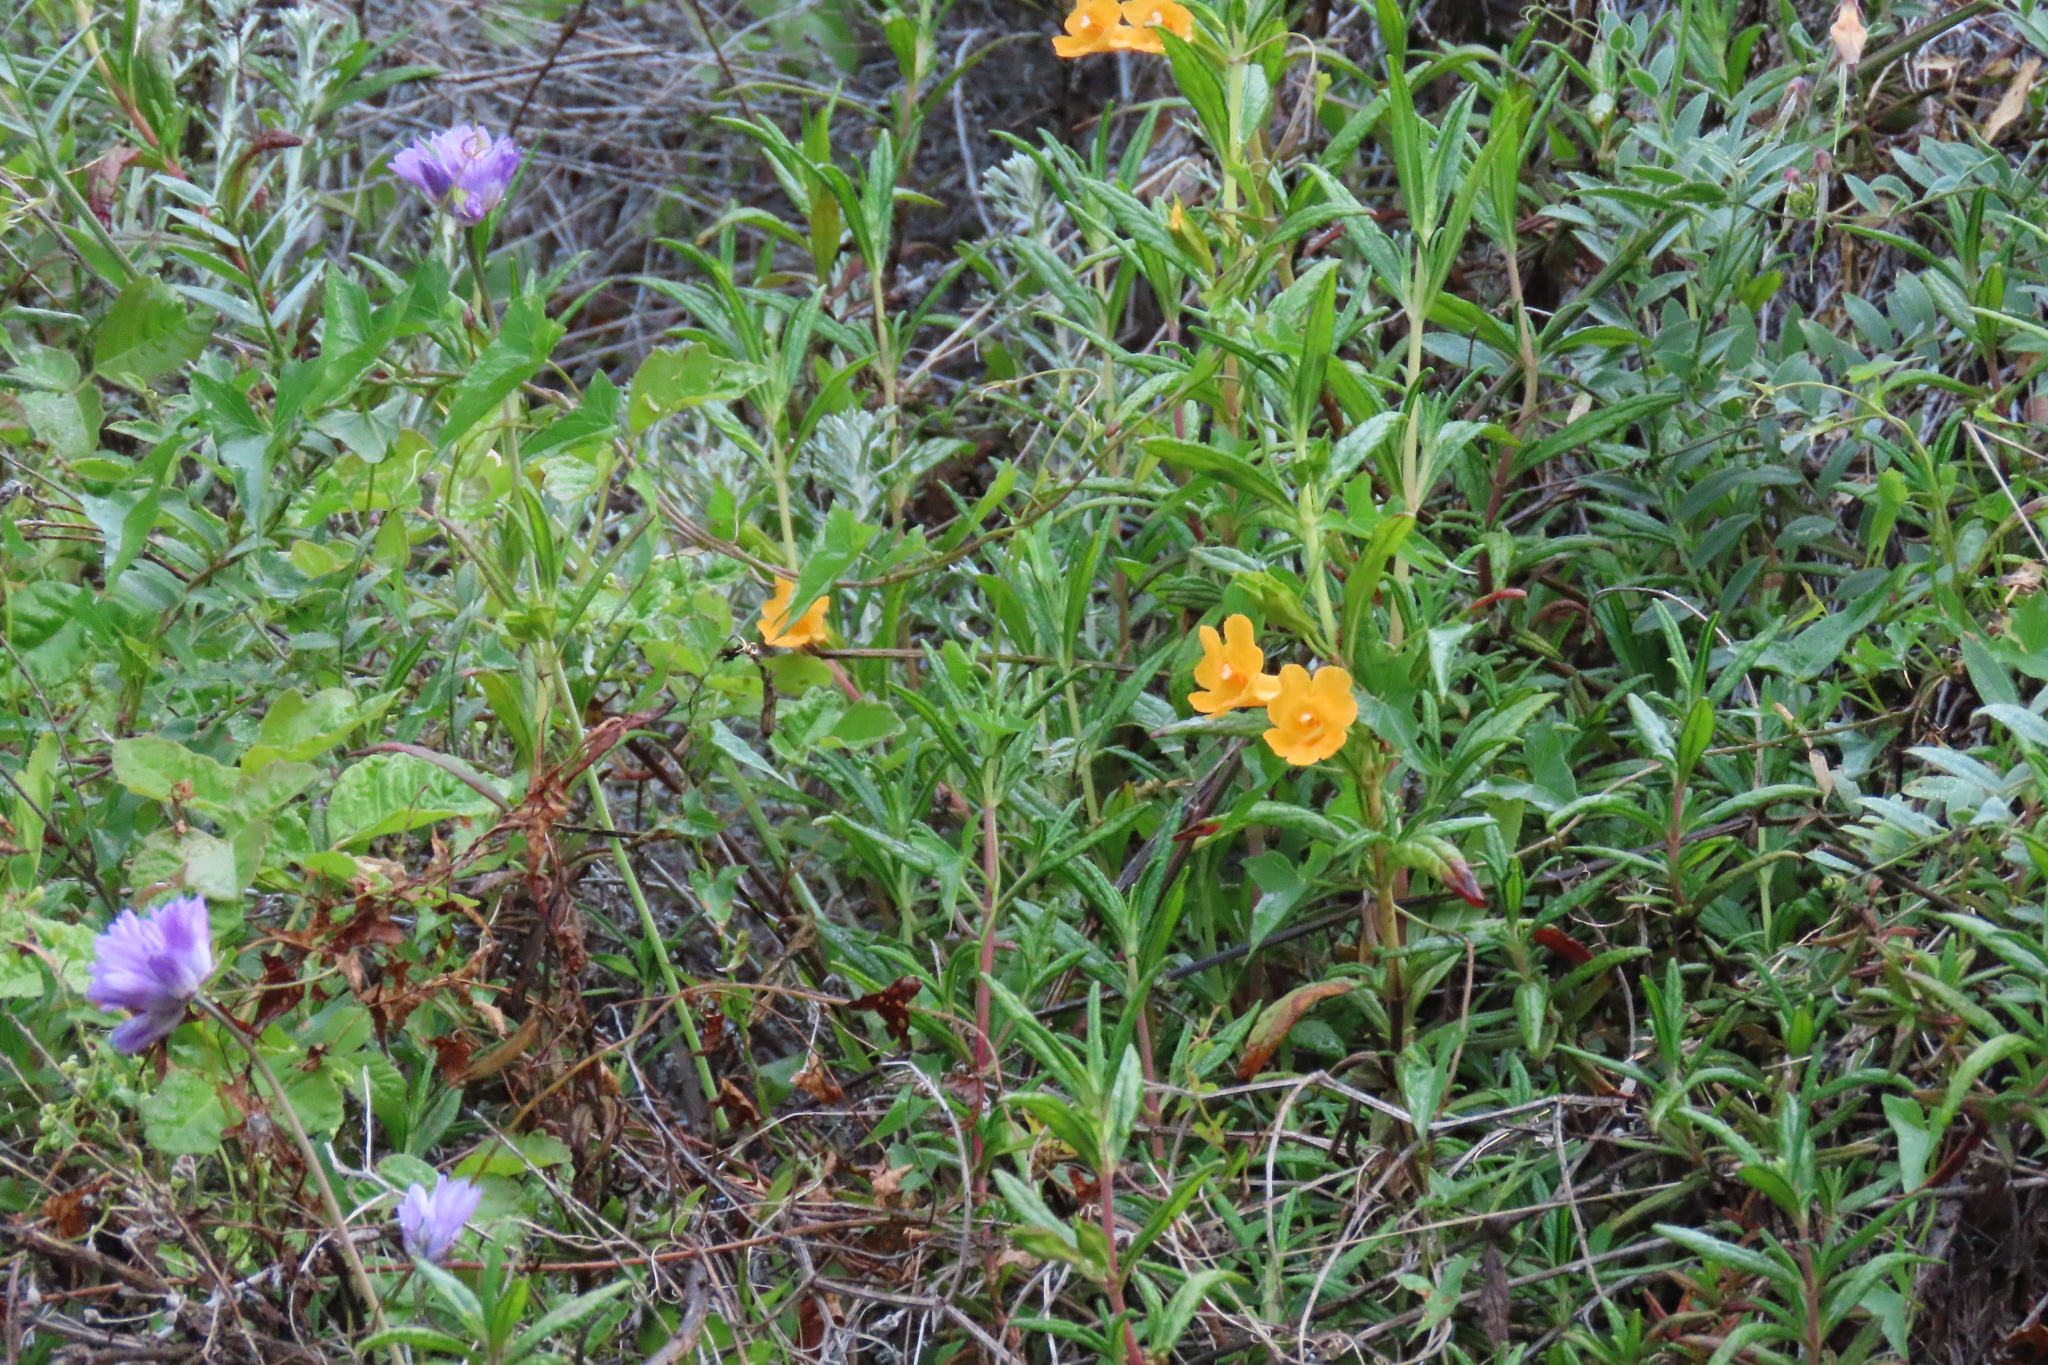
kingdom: Plantae
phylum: Tracheophyta
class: Magnoliopsida
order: Lamiales
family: Phrymaceae
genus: Diplacus
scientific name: Diplacus aurantiacus
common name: Bush monkey-flower
